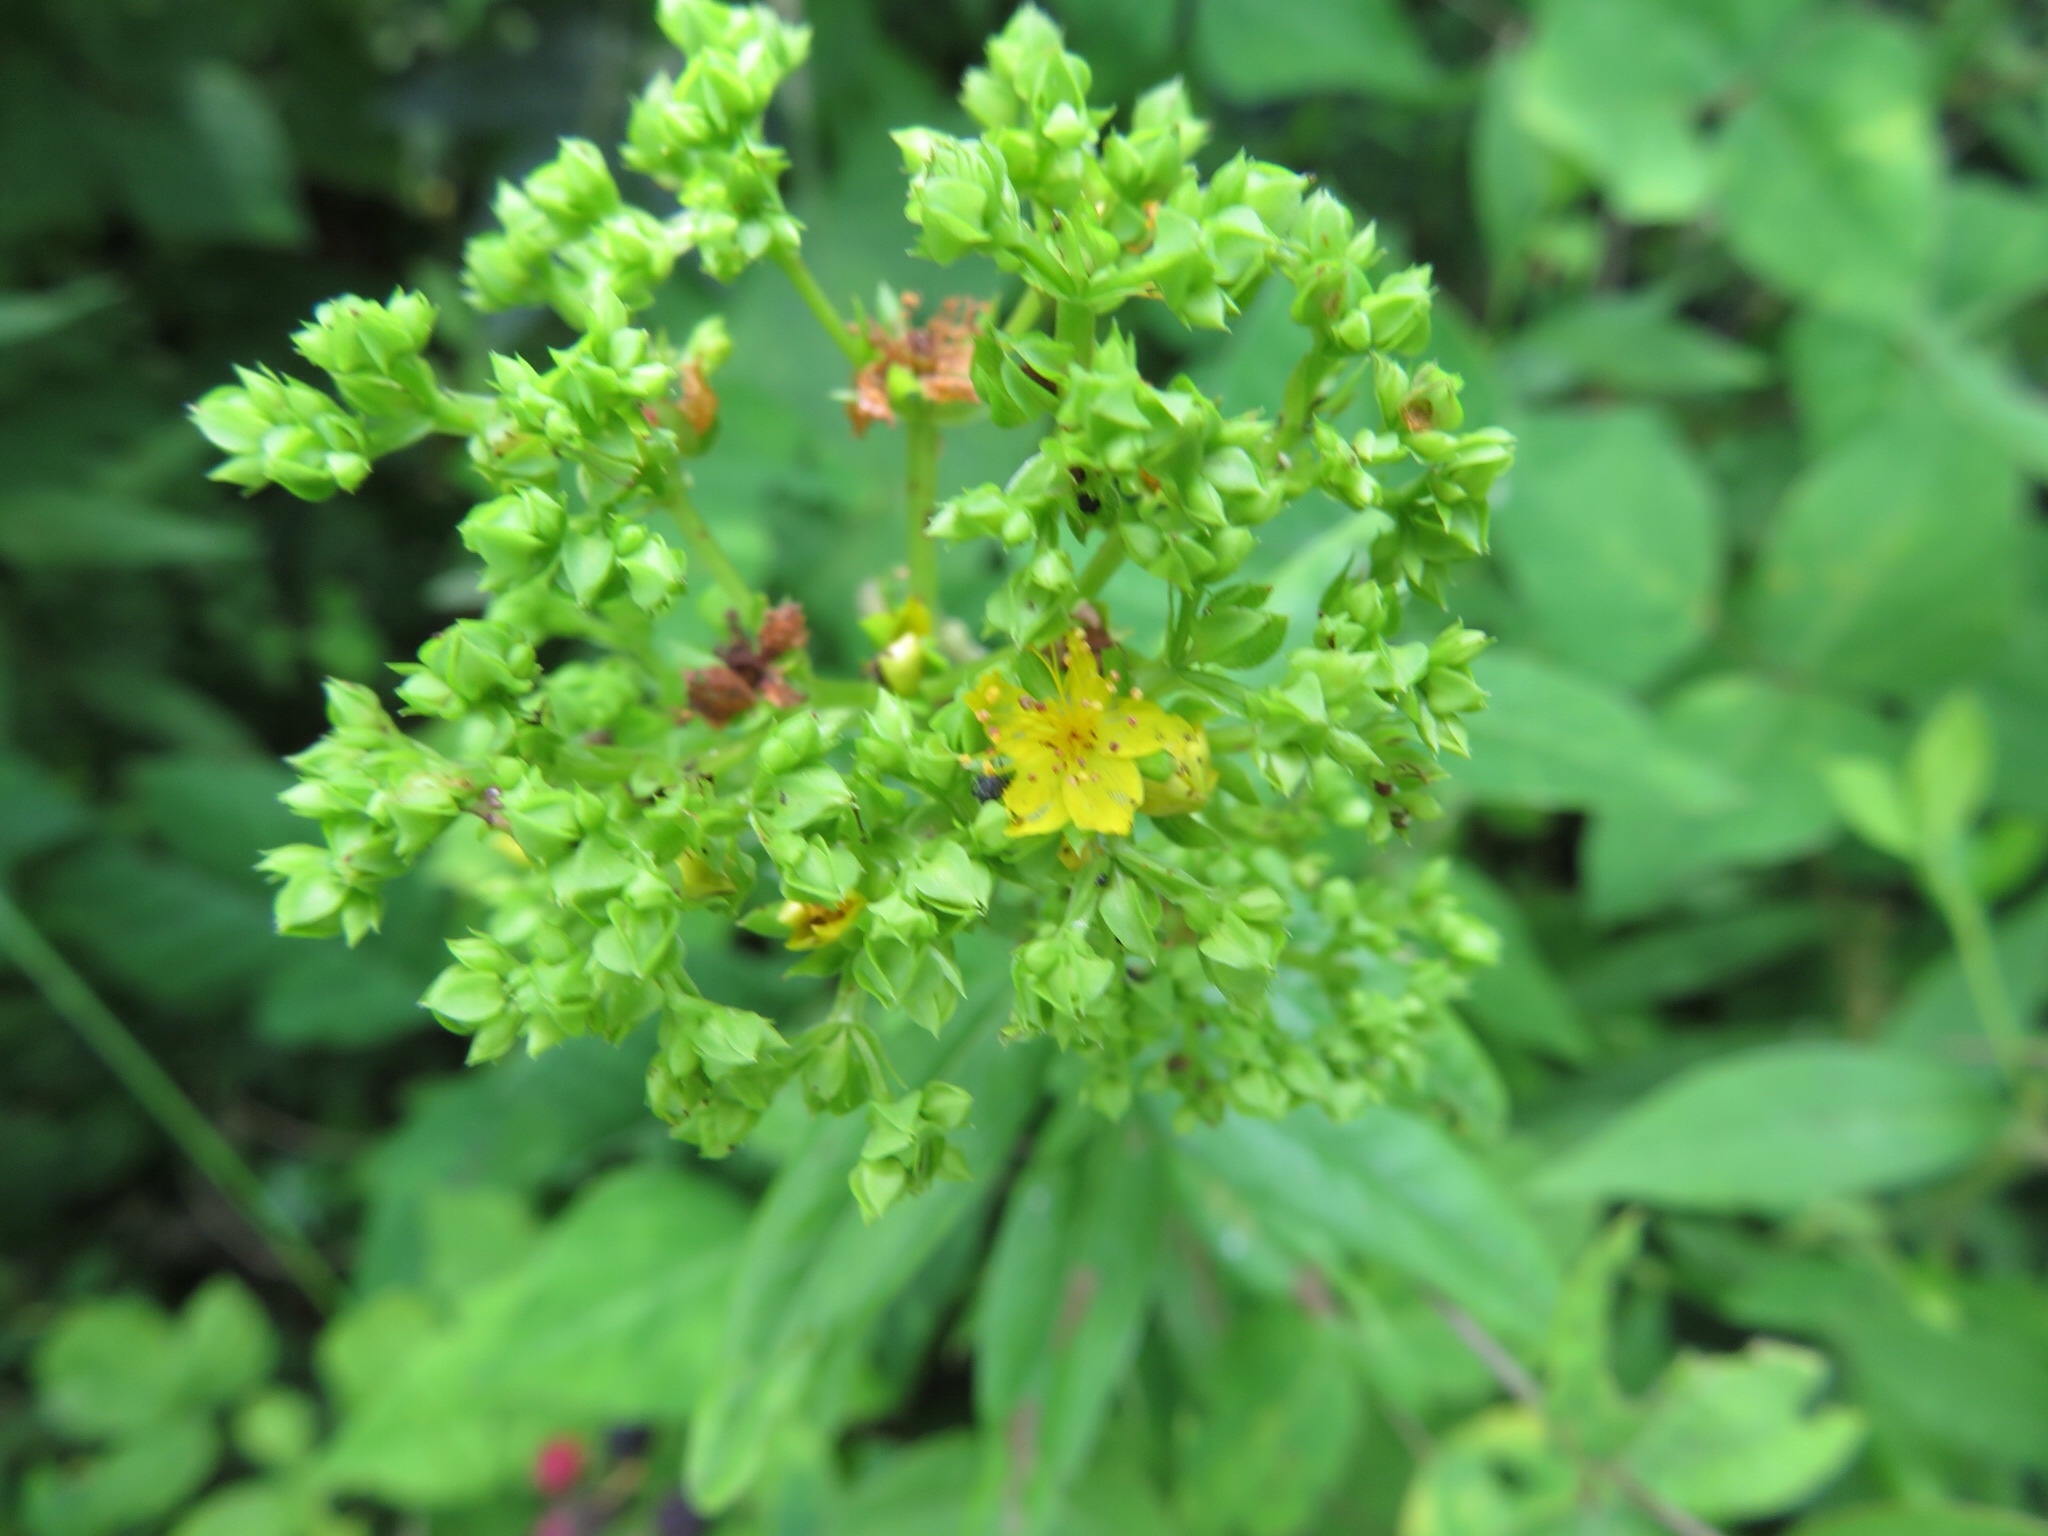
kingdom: Plantae
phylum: Tracheophyta
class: Magnoliopsida
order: Malpighiales
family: Hypericaceae
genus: Hypericum
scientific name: Hypericum punctatum
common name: Spotted st. john's-wort
